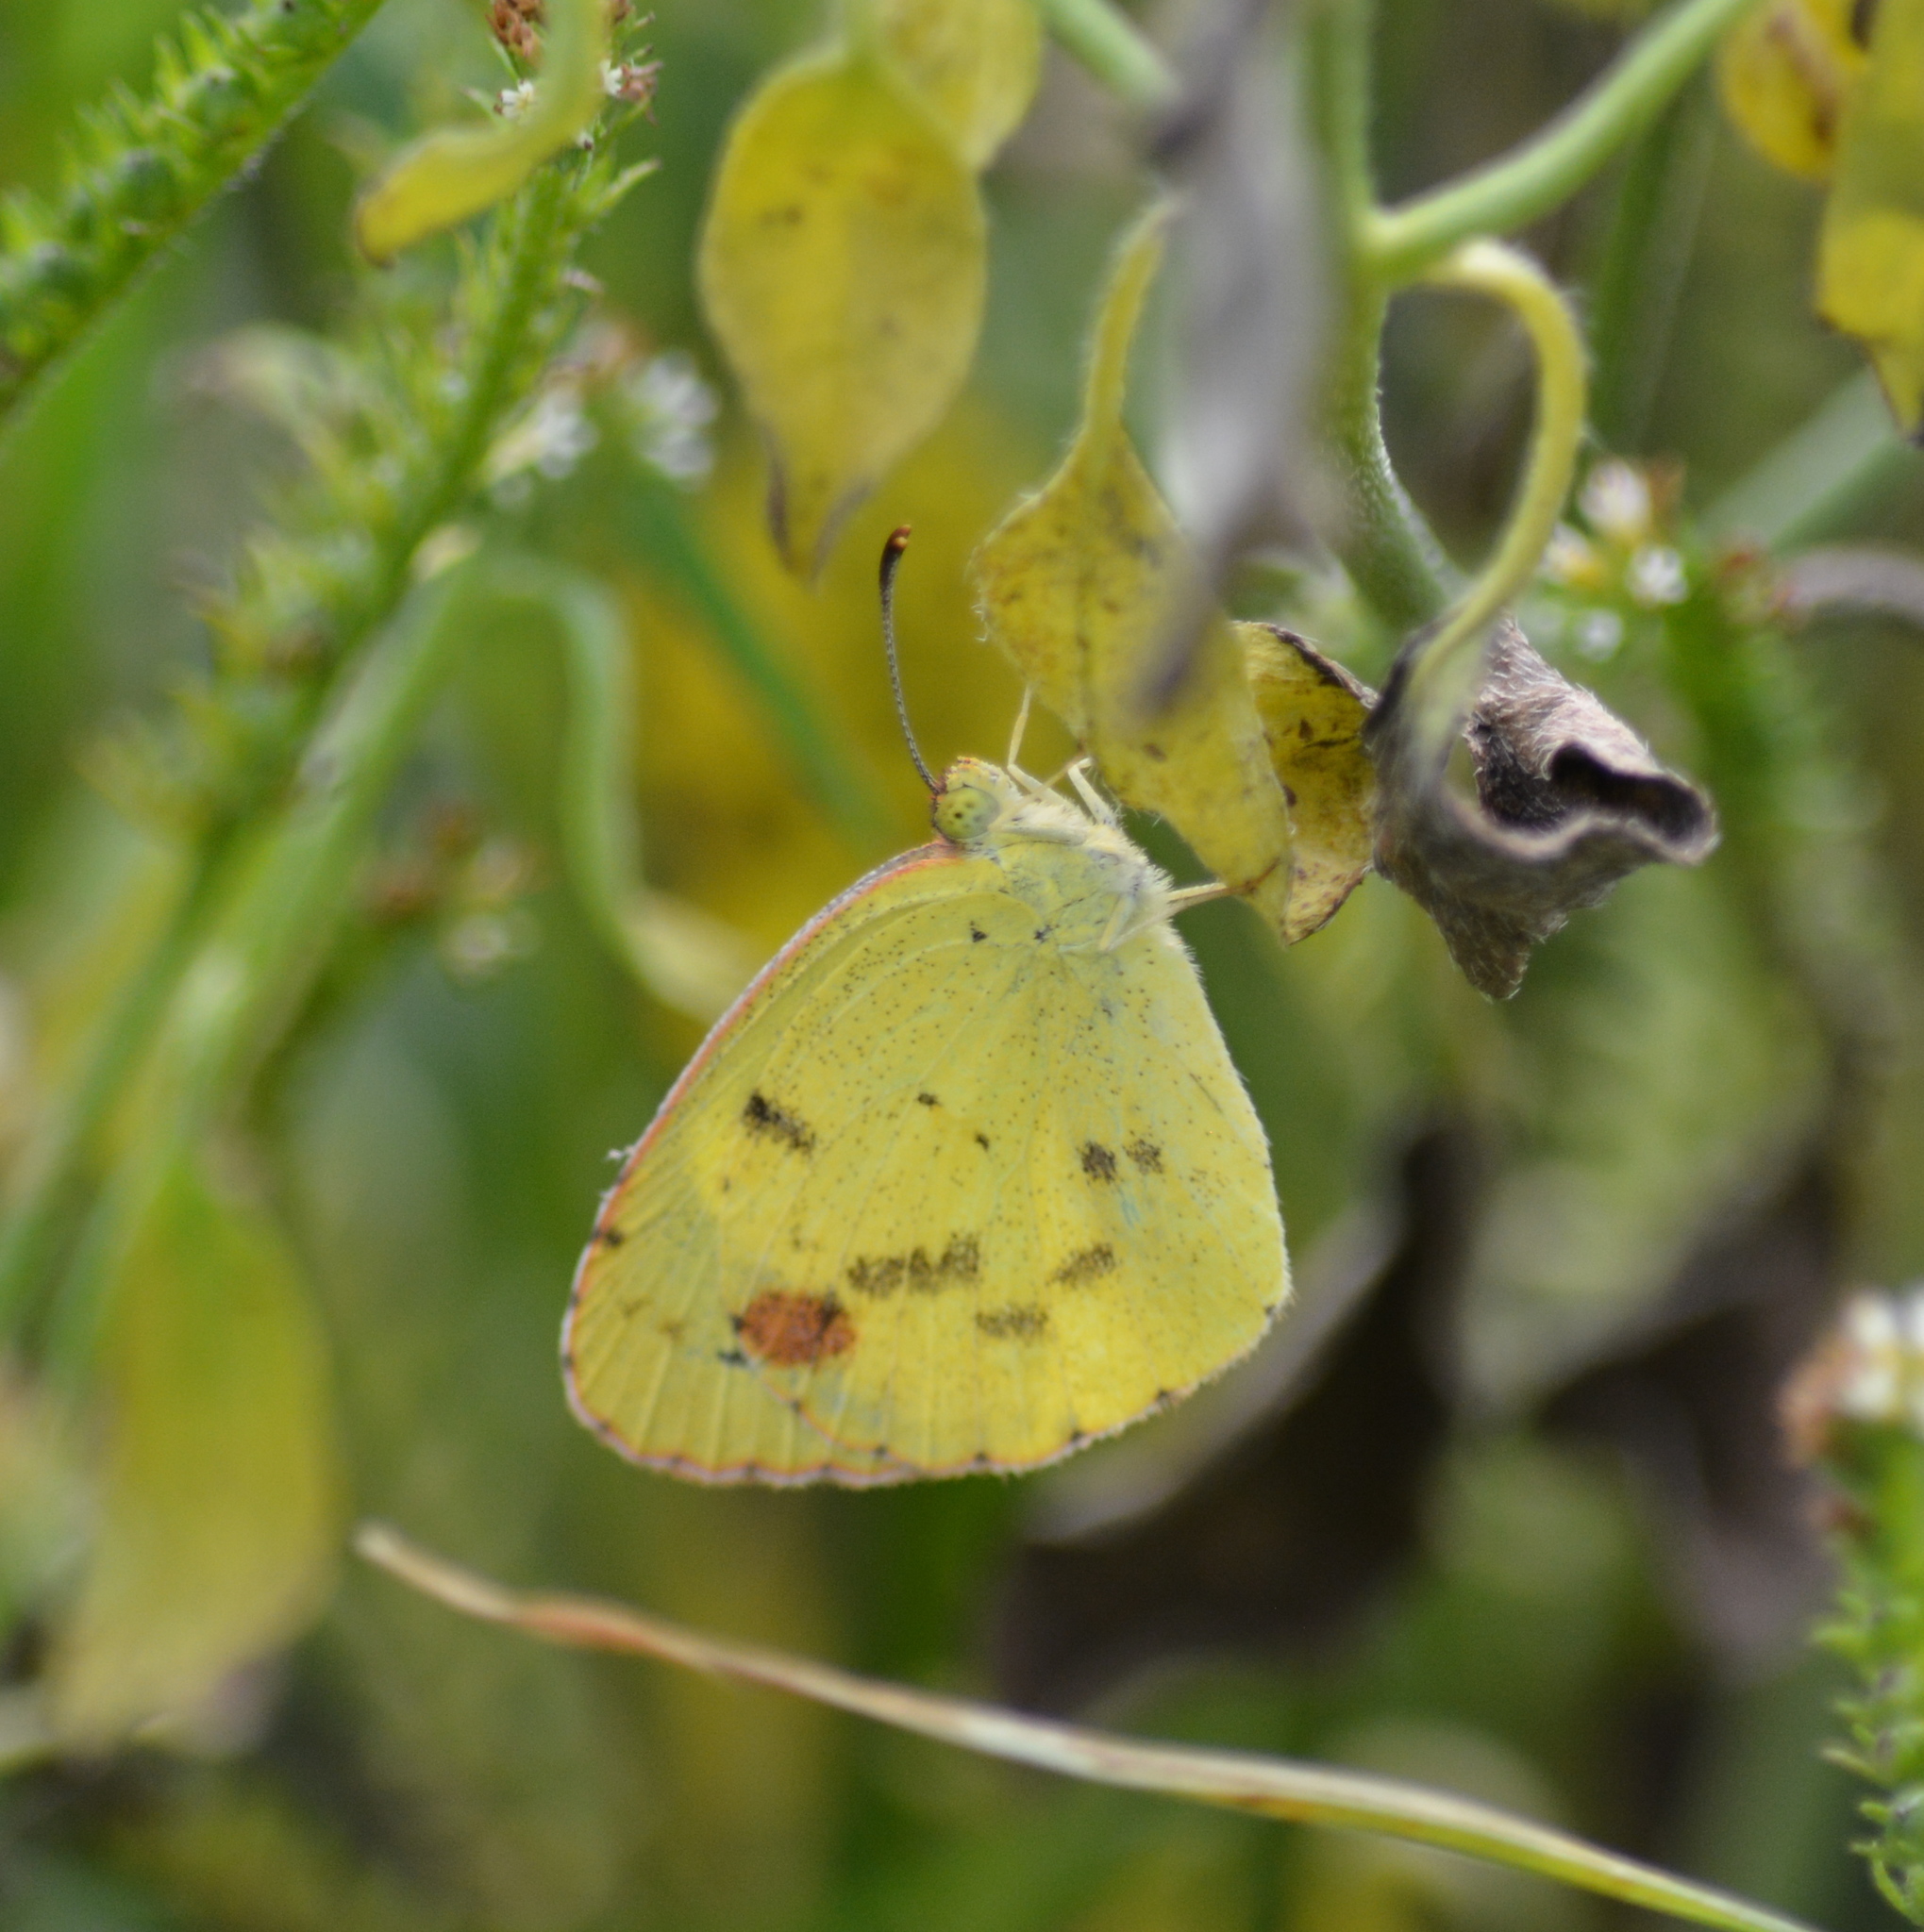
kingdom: Animalia
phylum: Arthropoda
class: Insecta
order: Lepidoptera
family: Pieridae
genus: Pyrisitia
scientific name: Pyrisitia lisa
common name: Little yellow
